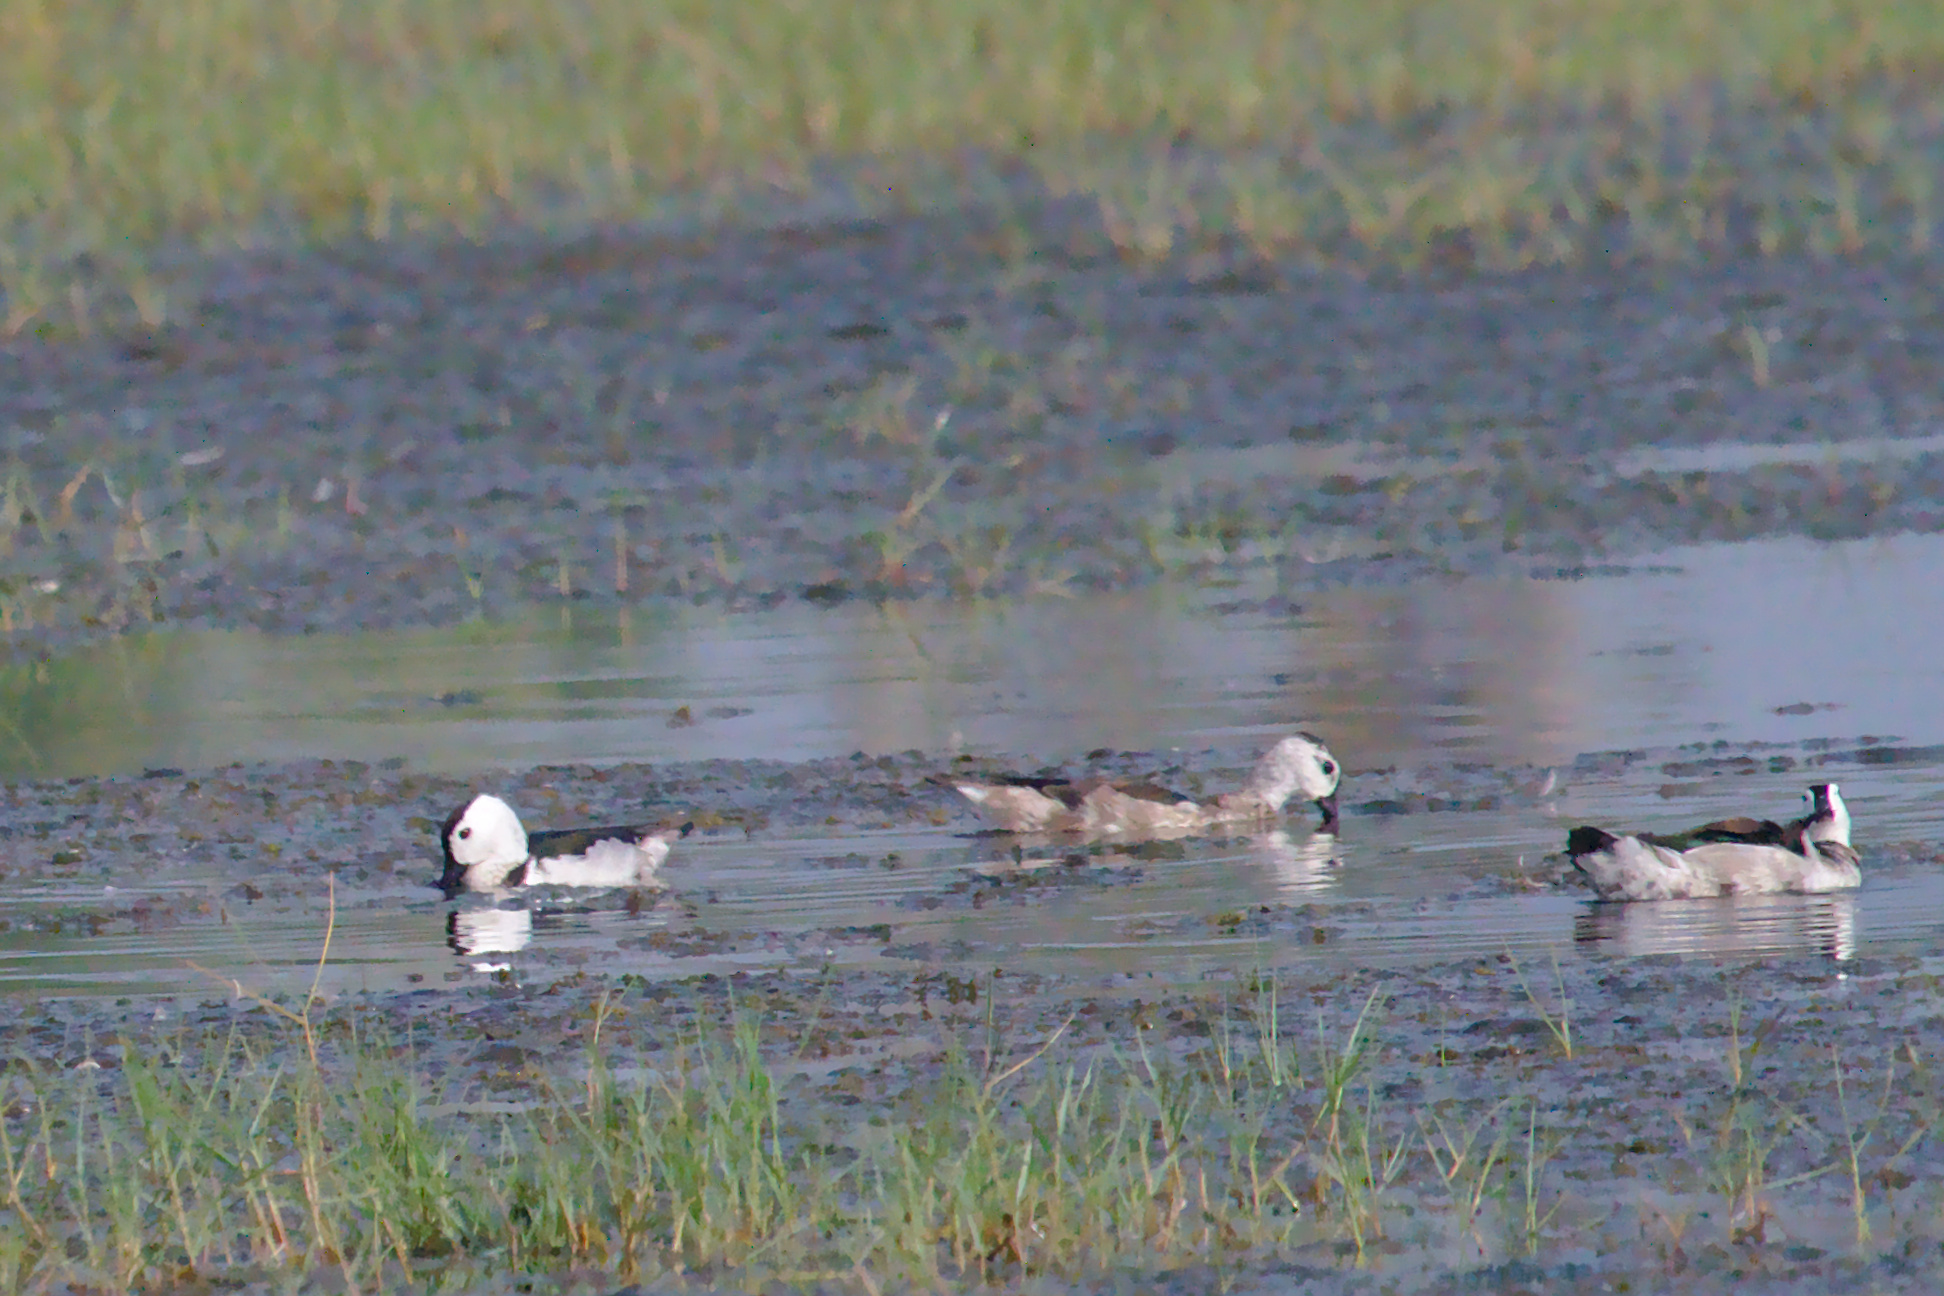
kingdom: Animalia
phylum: Chordata
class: Aves
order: Anseriformes
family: Anatidae
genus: Nettapus
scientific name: Nettapus coromandelianus
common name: Cotton pygmy-goose
